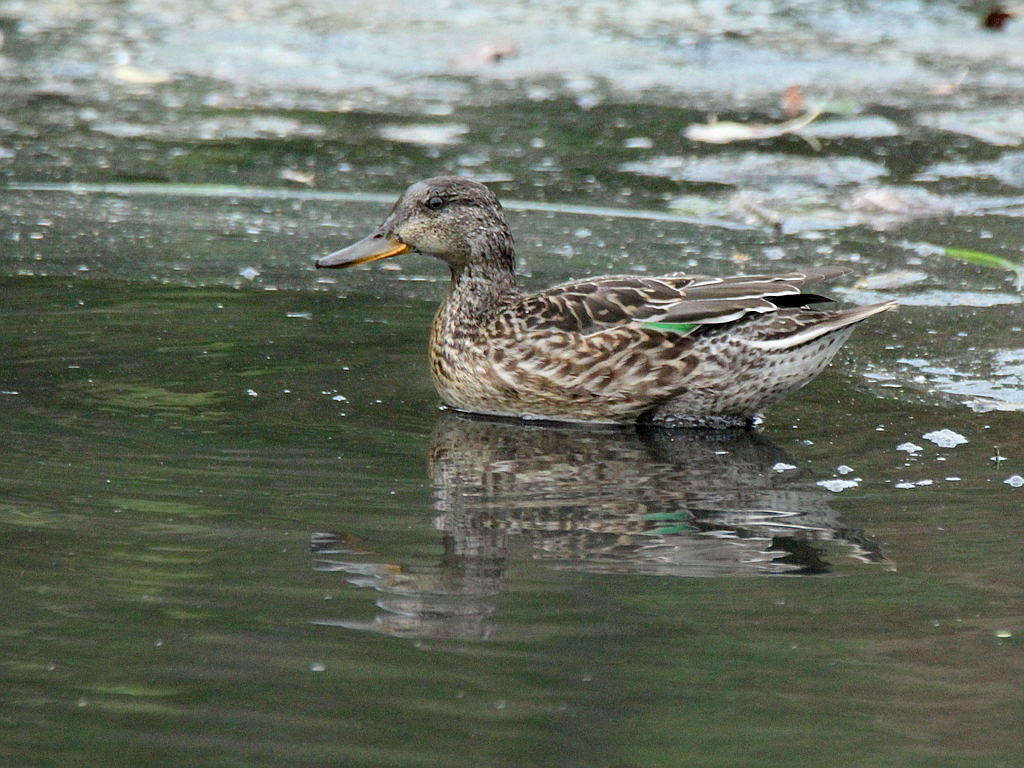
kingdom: Animalia
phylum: Chordata
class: Aves
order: Anseriformes
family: Anatidae
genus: Anas
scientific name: Anas crecca
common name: Eurasian teal
